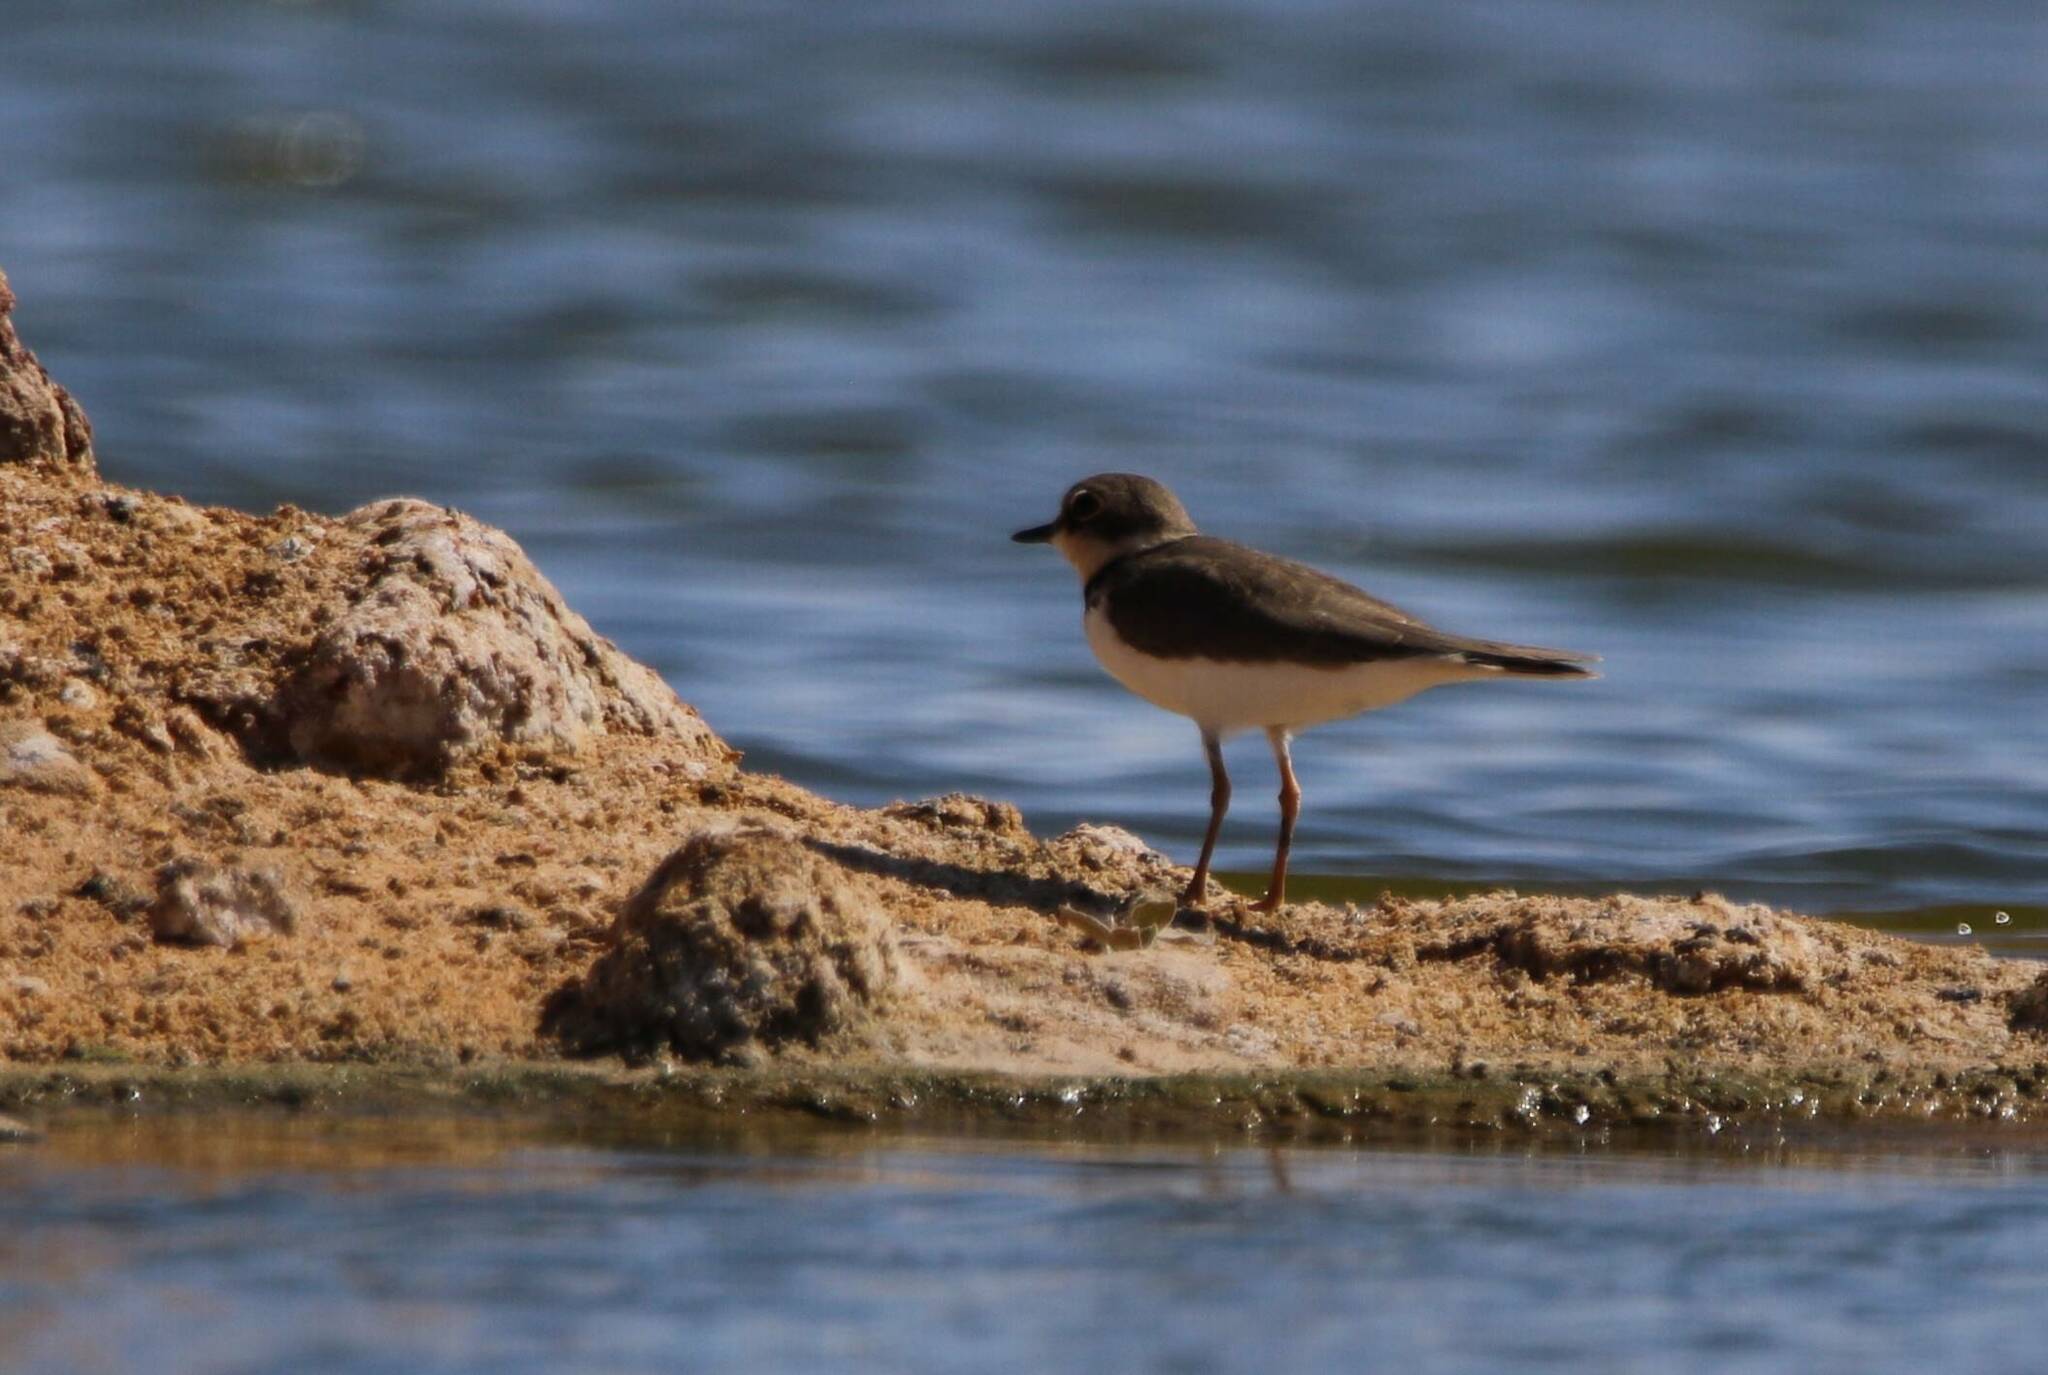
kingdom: Animalia
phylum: Chordata
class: Aves
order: Charadriiformes
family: Charadriidae
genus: Charadrius
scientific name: Charadrius dubius
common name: Little ringed plover
